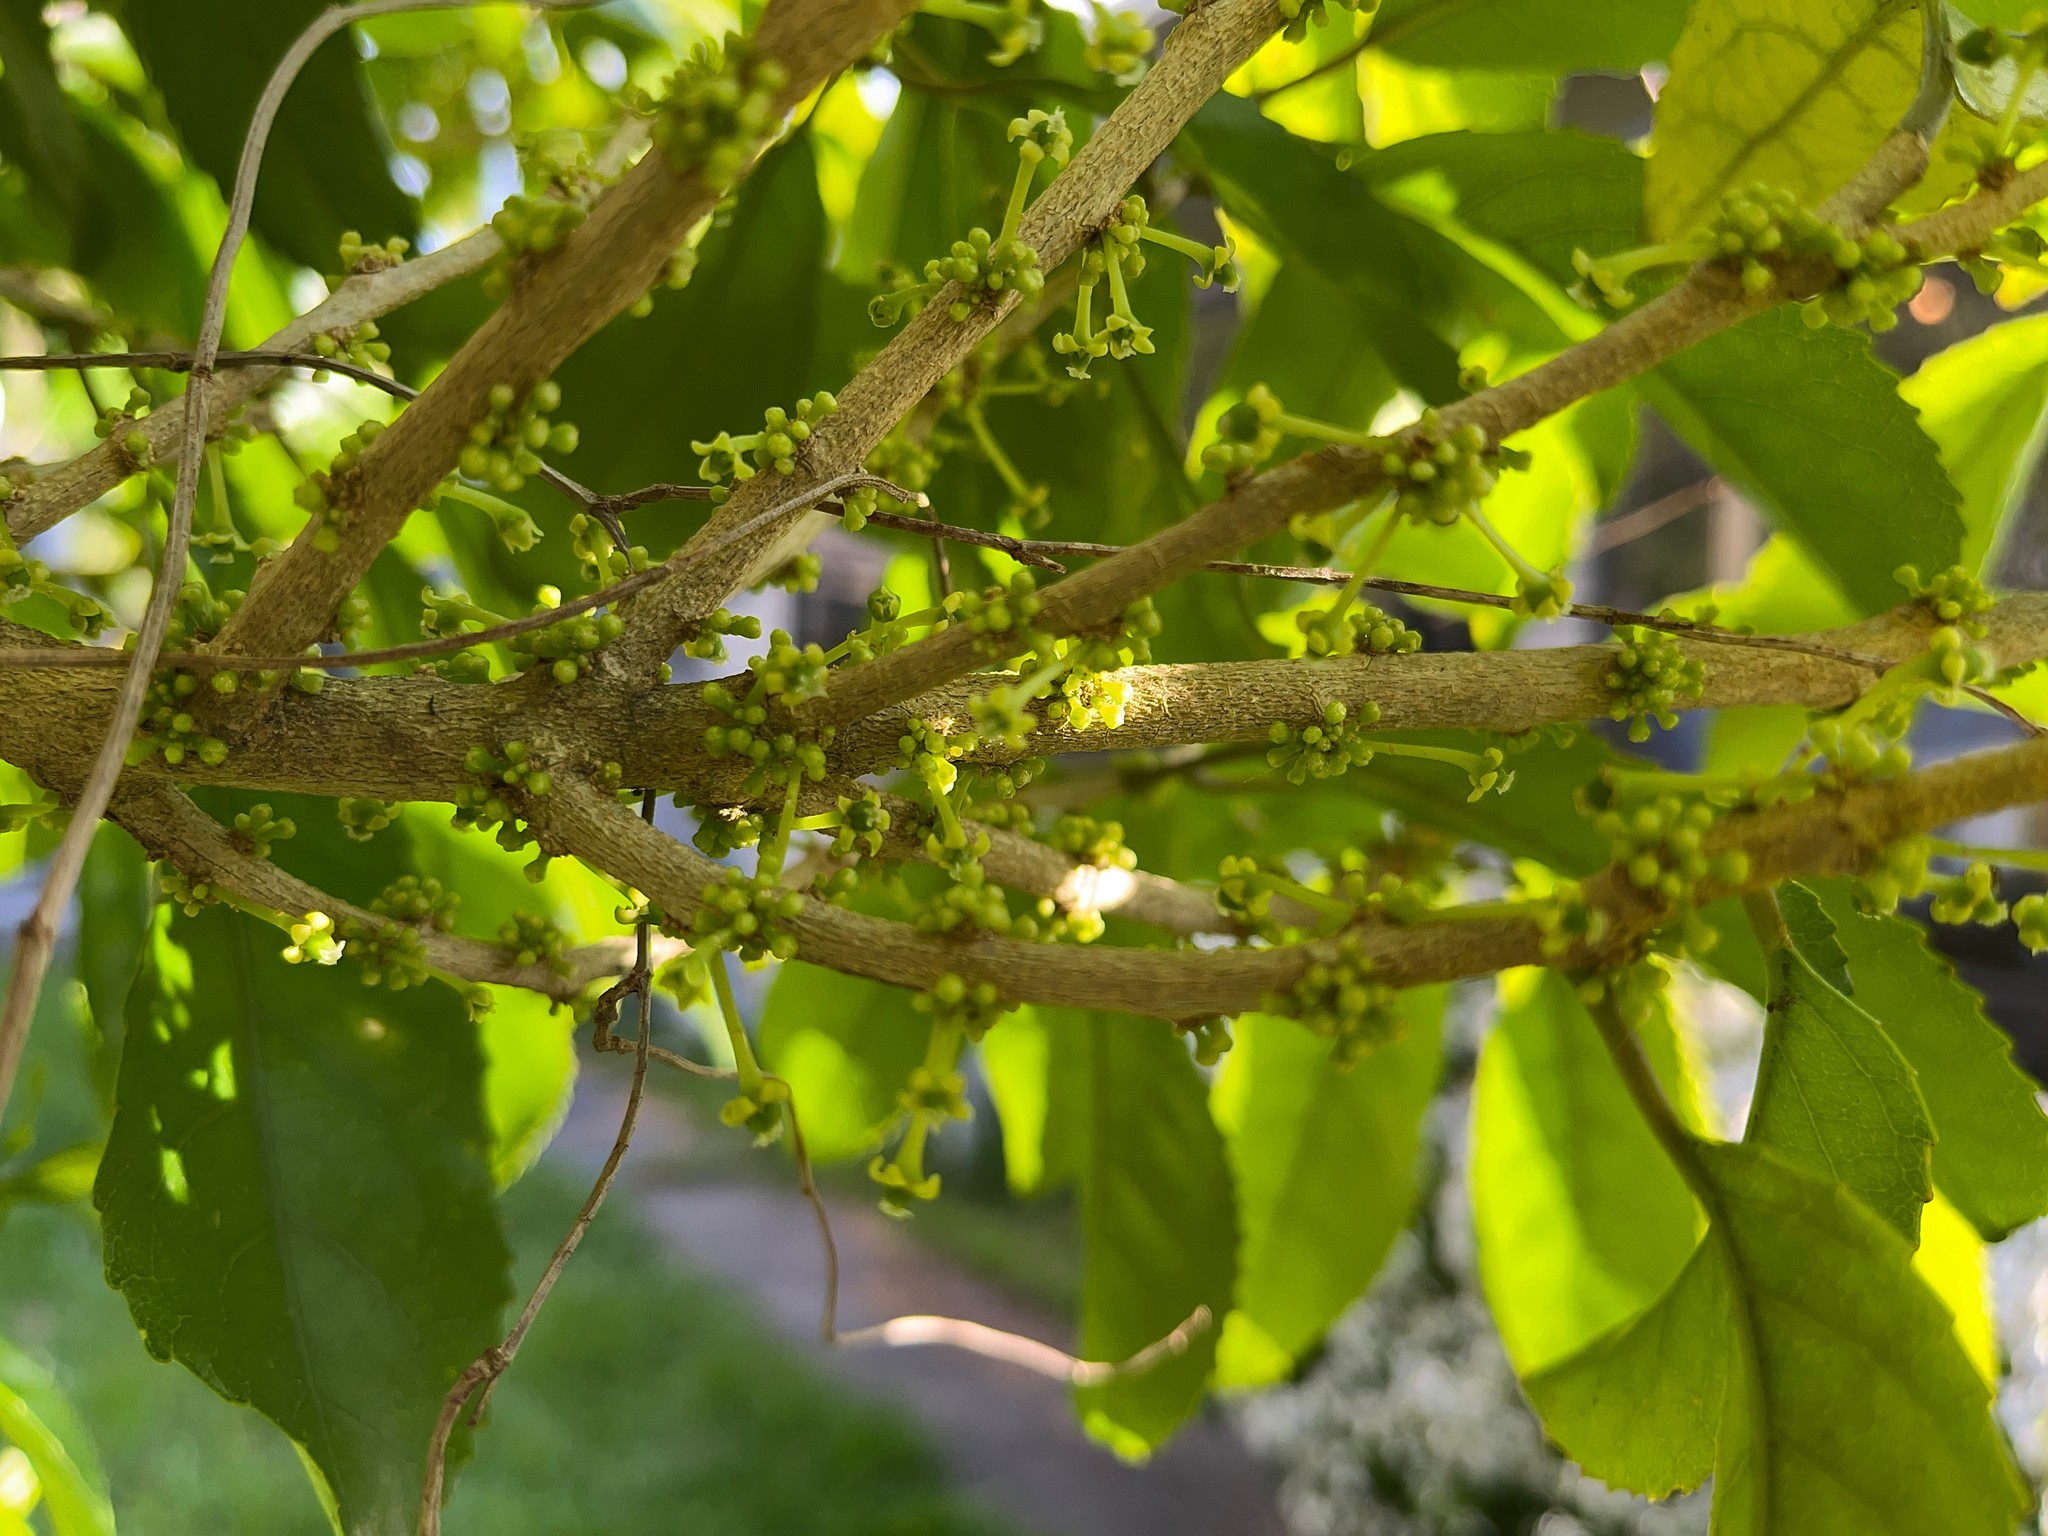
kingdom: Plantae
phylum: Tracheophyta
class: Magnoliopsida
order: Malpighiales
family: Violaceae
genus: Melicytus
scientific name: Melicytus ramiflorus
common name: Mahoe
